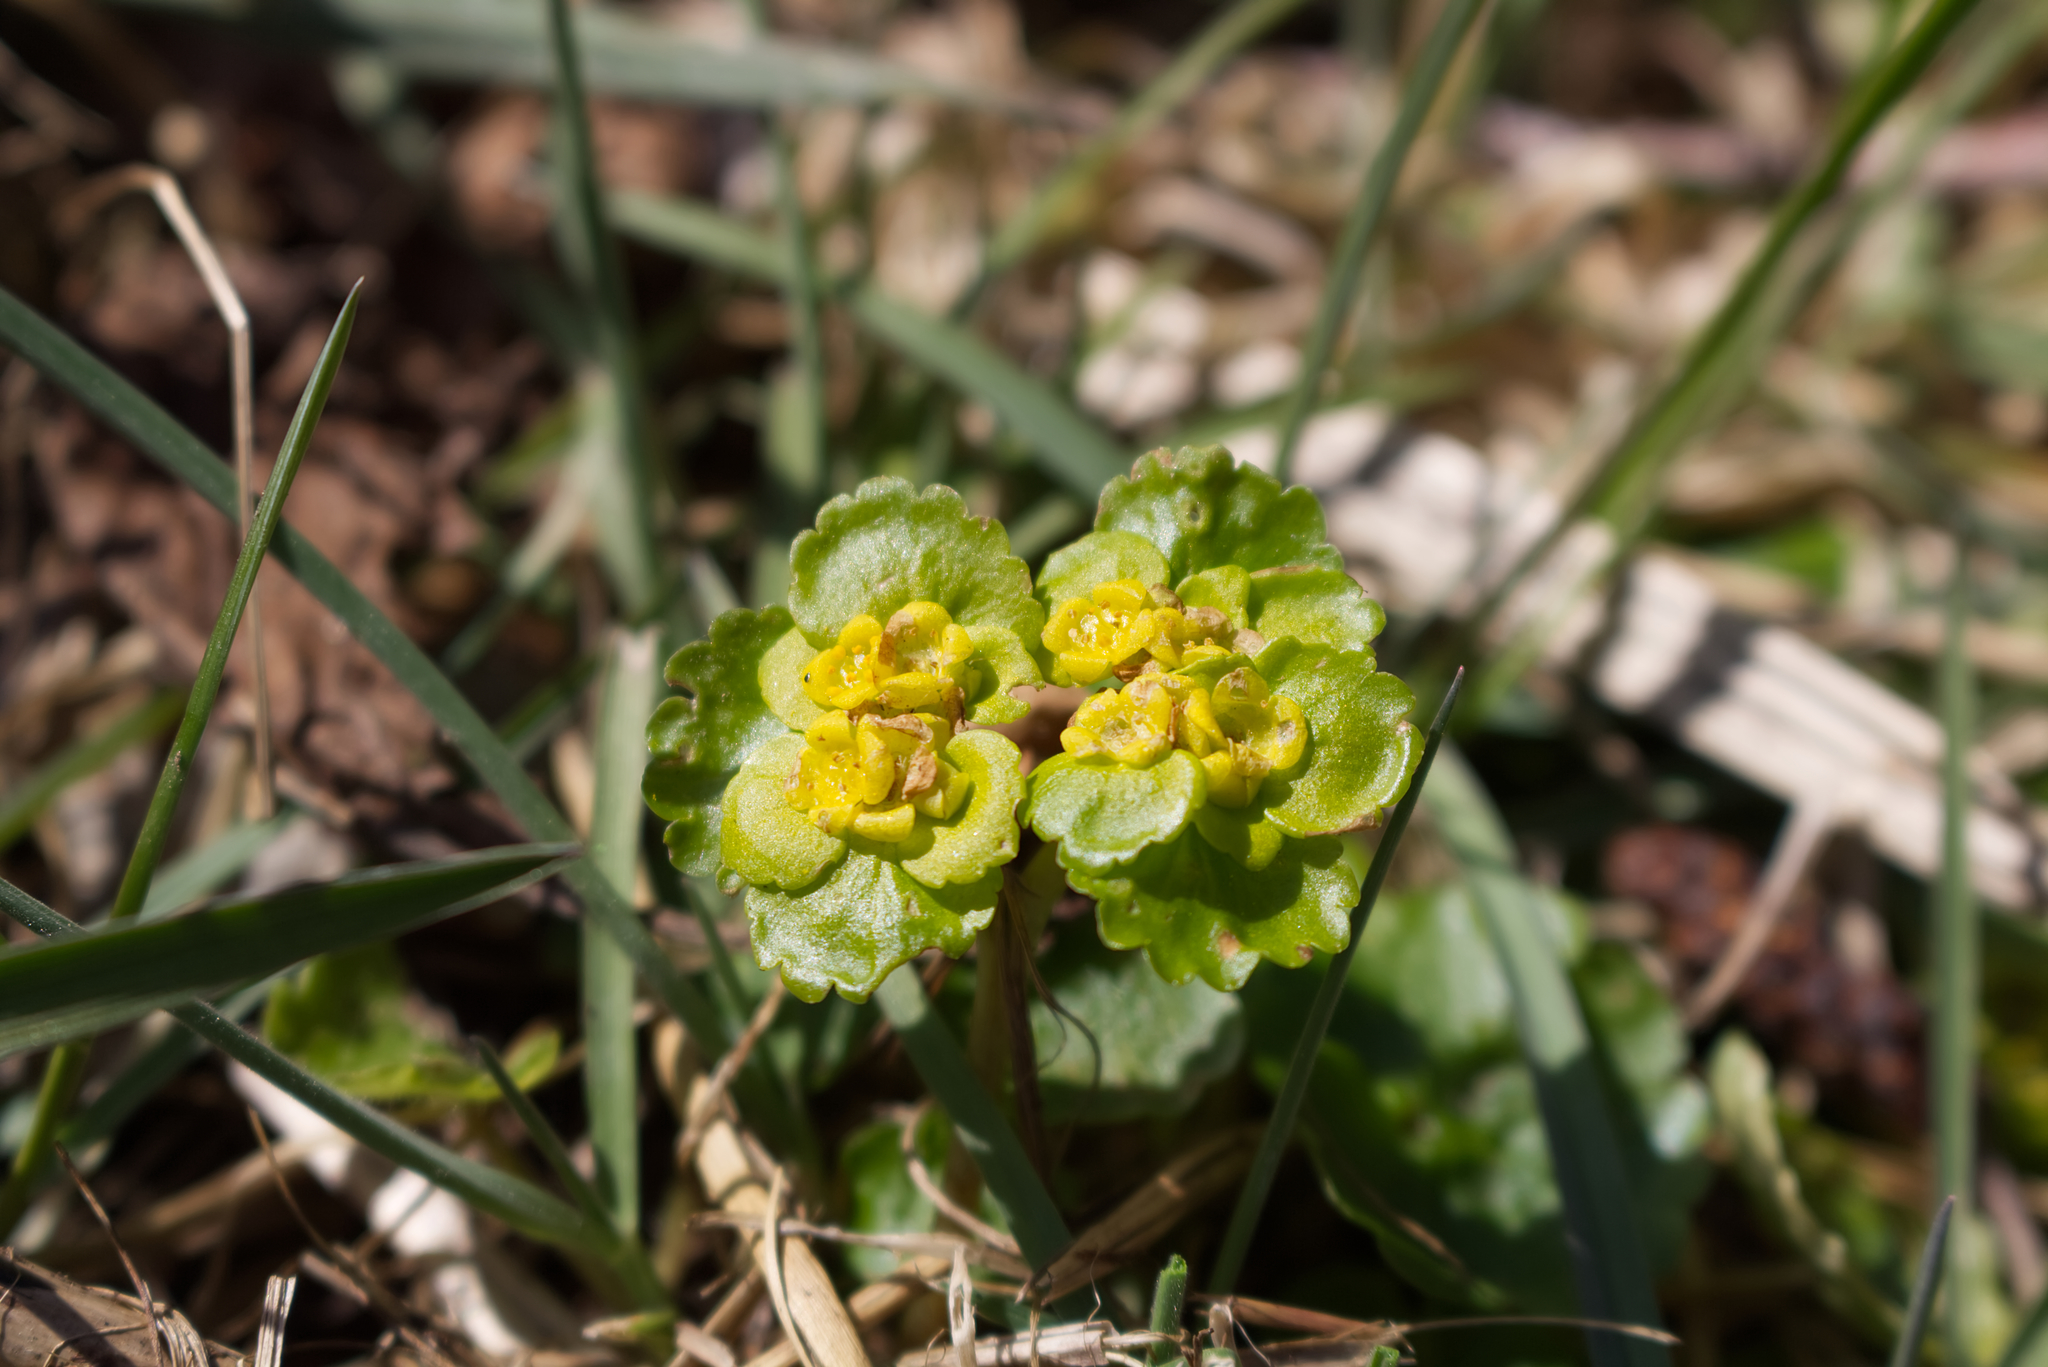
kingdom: Plantae
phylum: Tracheophyta
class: Magnoliopsida
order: Saxifragales
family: Saxifragaceae
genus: Chrysosplenium
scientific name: Chrysosplenium alternifolium
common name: Alternate-leaved golden-saxifrage
